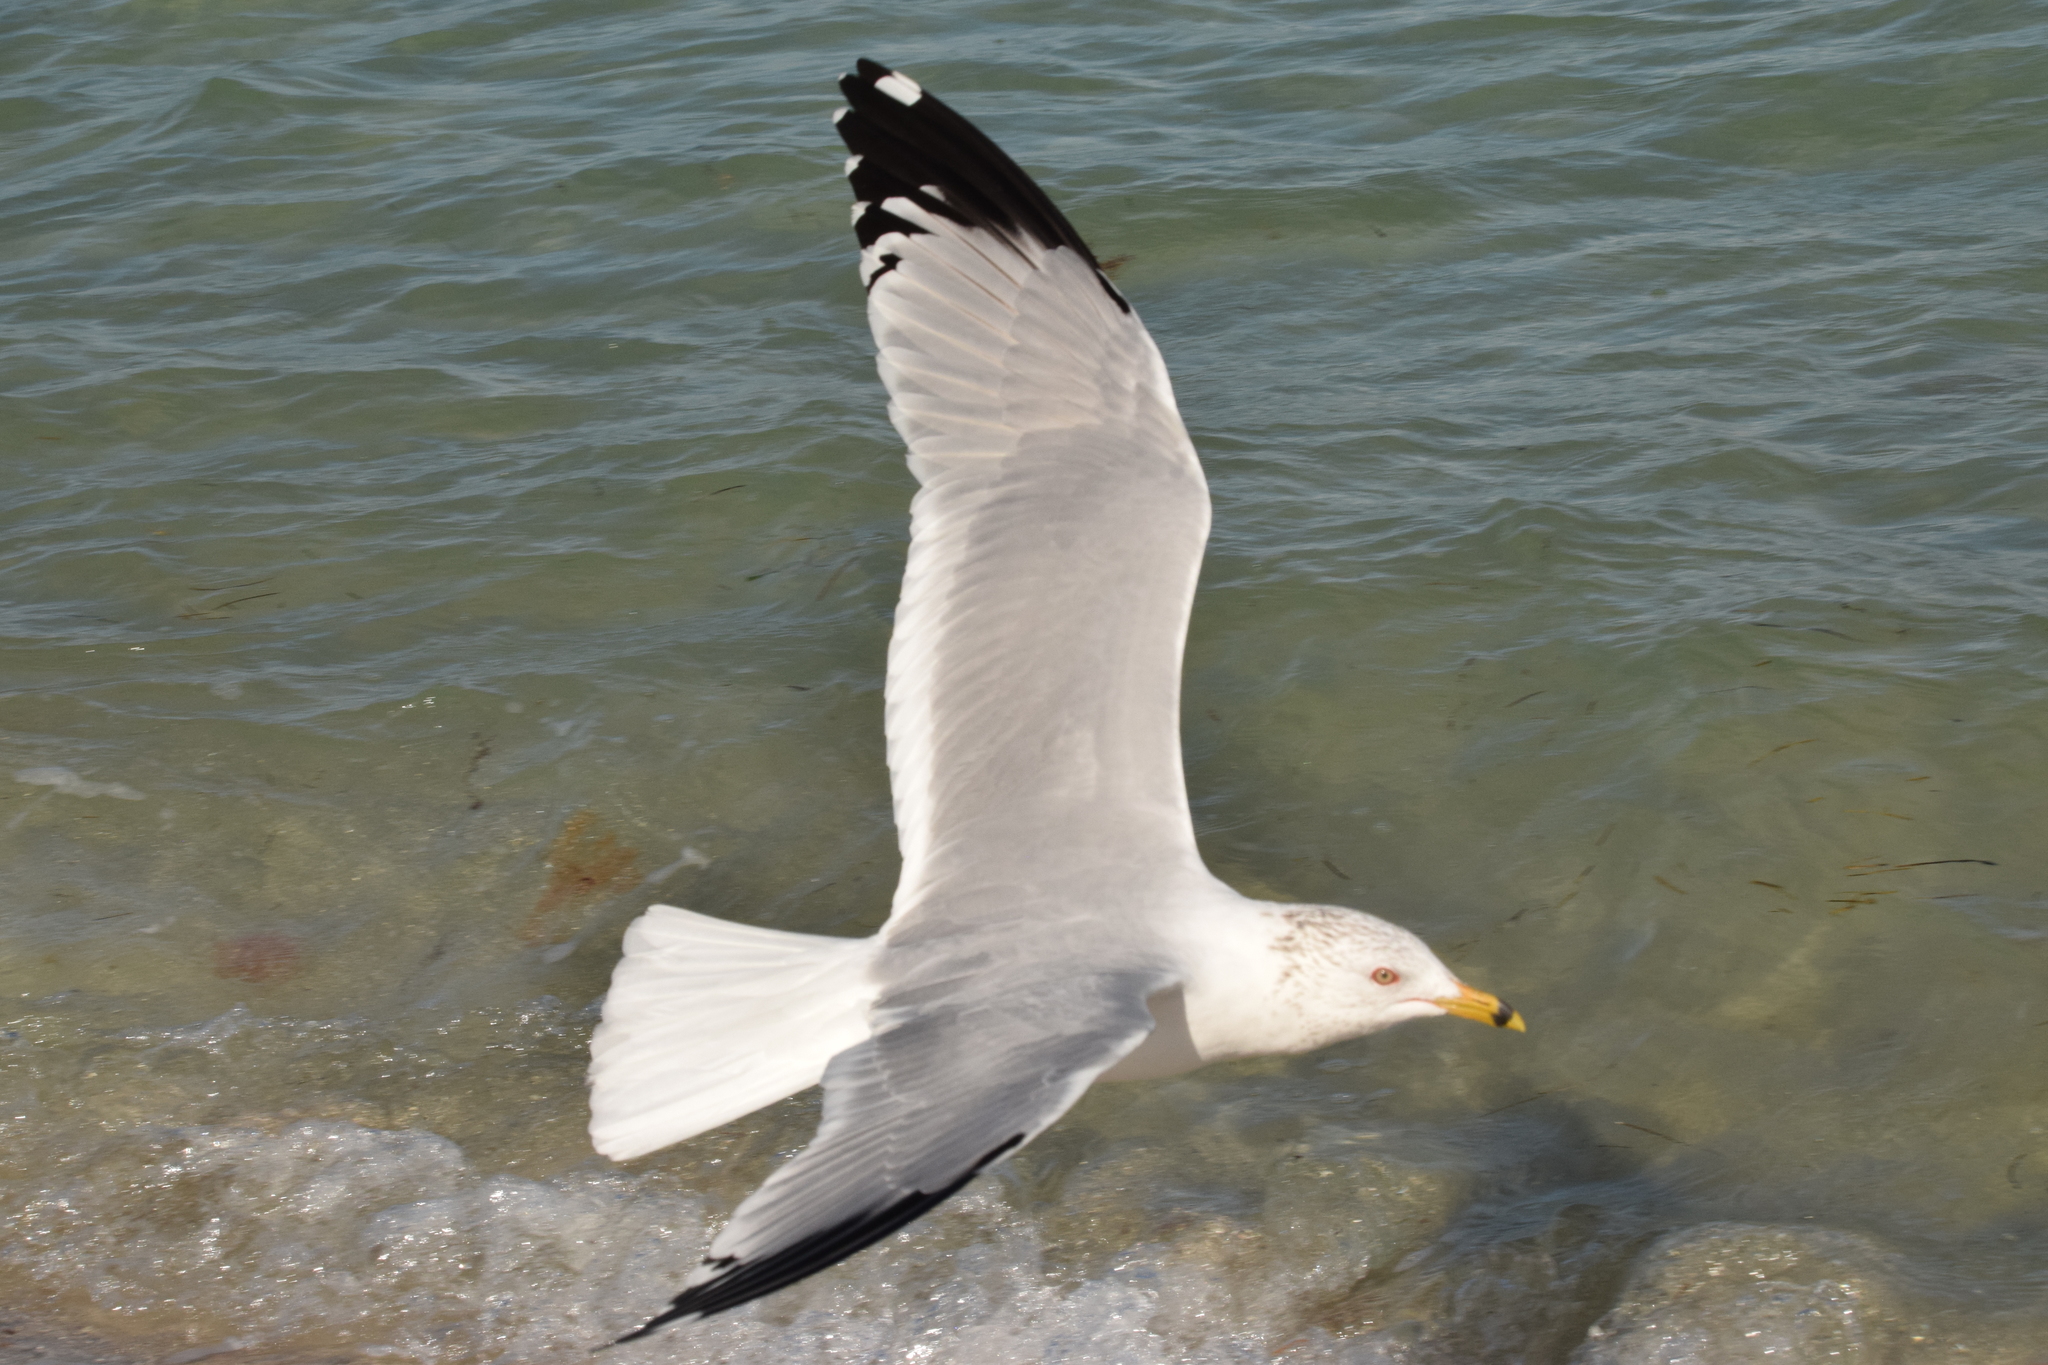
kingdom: Animalia
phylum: Chordata
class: Aves
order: Charadriiformes
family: Laridae
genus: Larus
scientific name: Larus delawarensis
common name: Ring-billed gull
